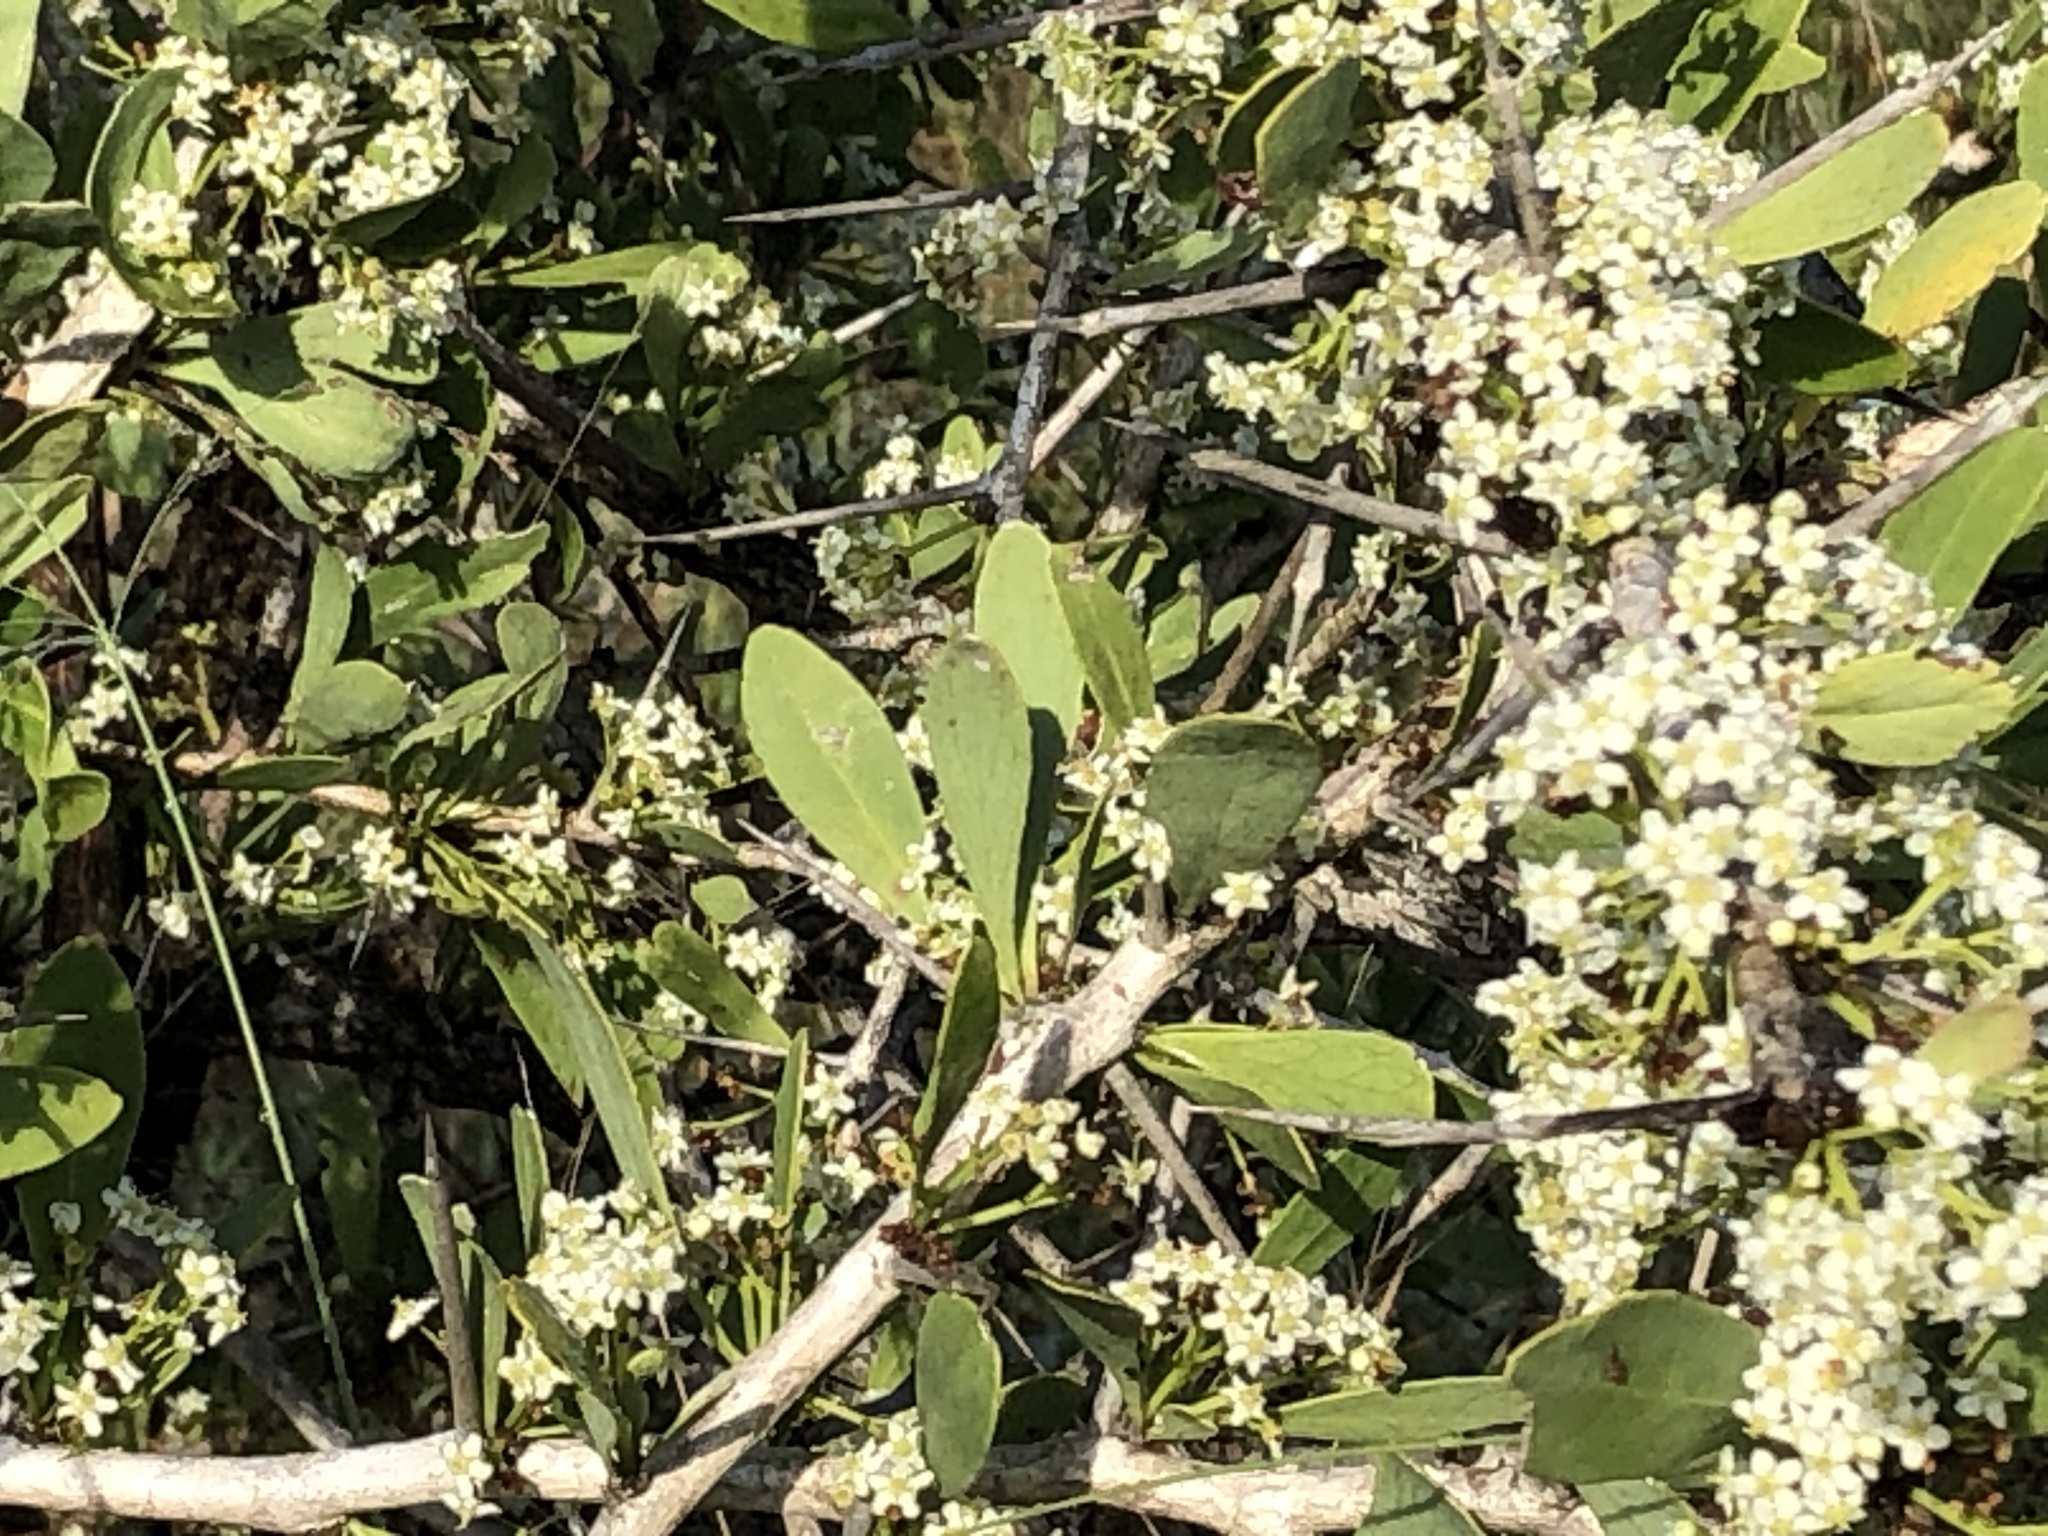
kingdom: Plantae
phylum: Tracheophyta
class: Magnoliopsida
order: Celastrales
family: Celastraceae
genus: Gymnosporia
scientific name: Gymnosporia buxifolia
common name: Common spike-thorn
